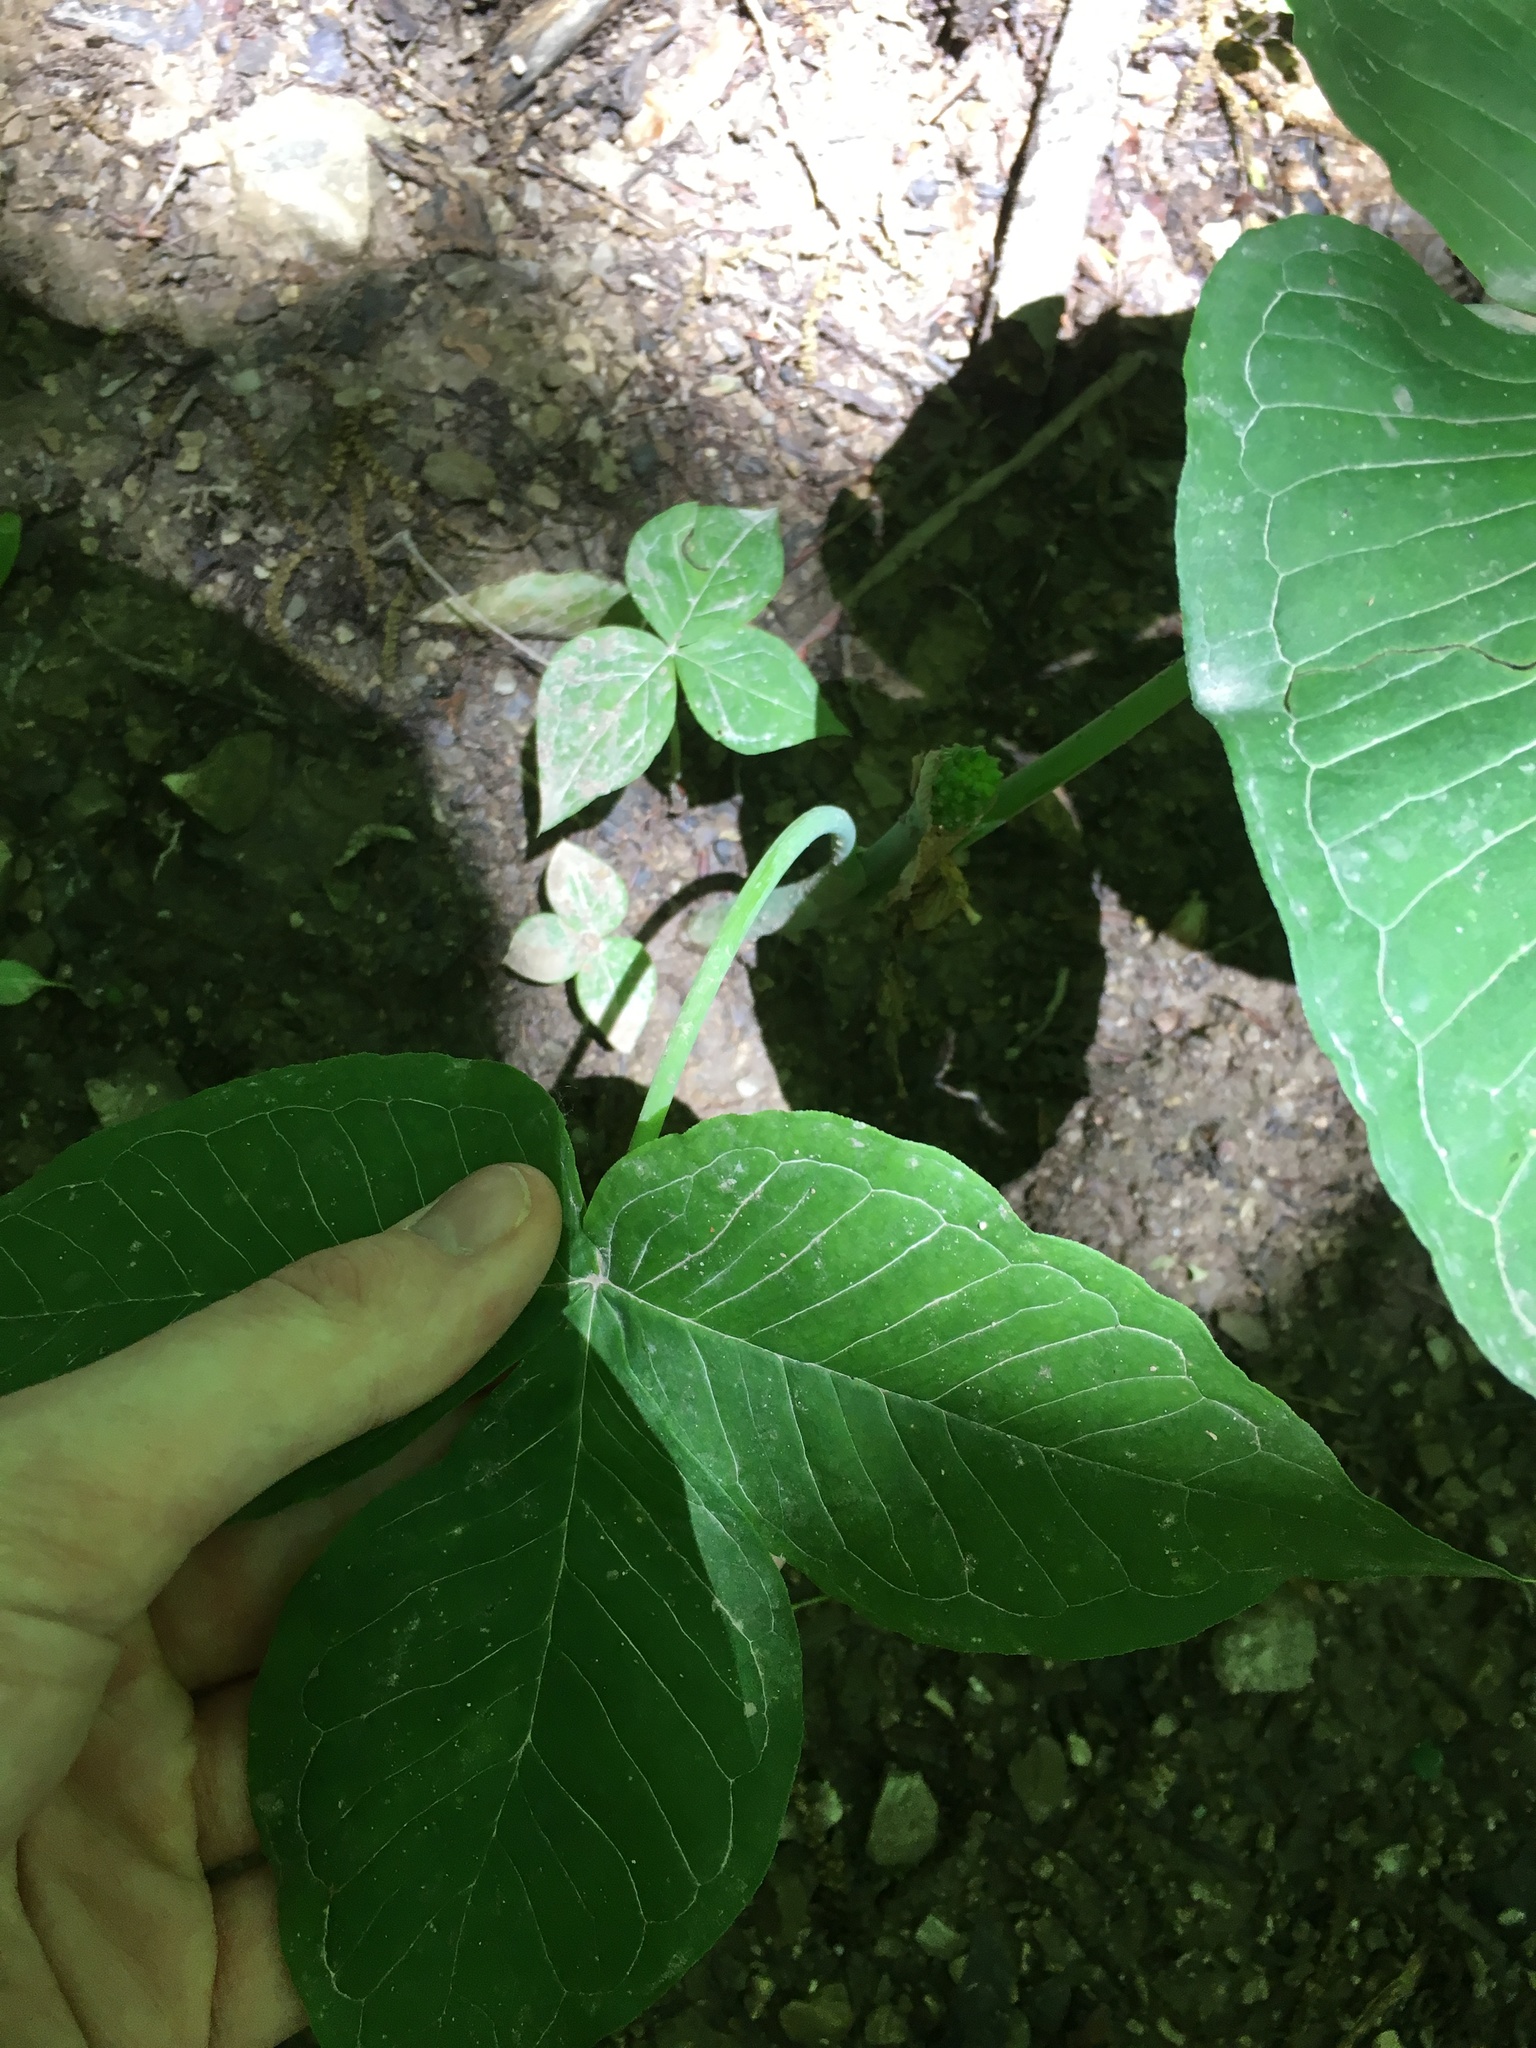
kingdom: Plantae
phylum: Tracheophyta
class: Liliopsida
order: Alismatales
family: Araceae
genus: Arisaema
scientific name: Arisaema triphyllum
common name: Jack-in-the-pulpit
